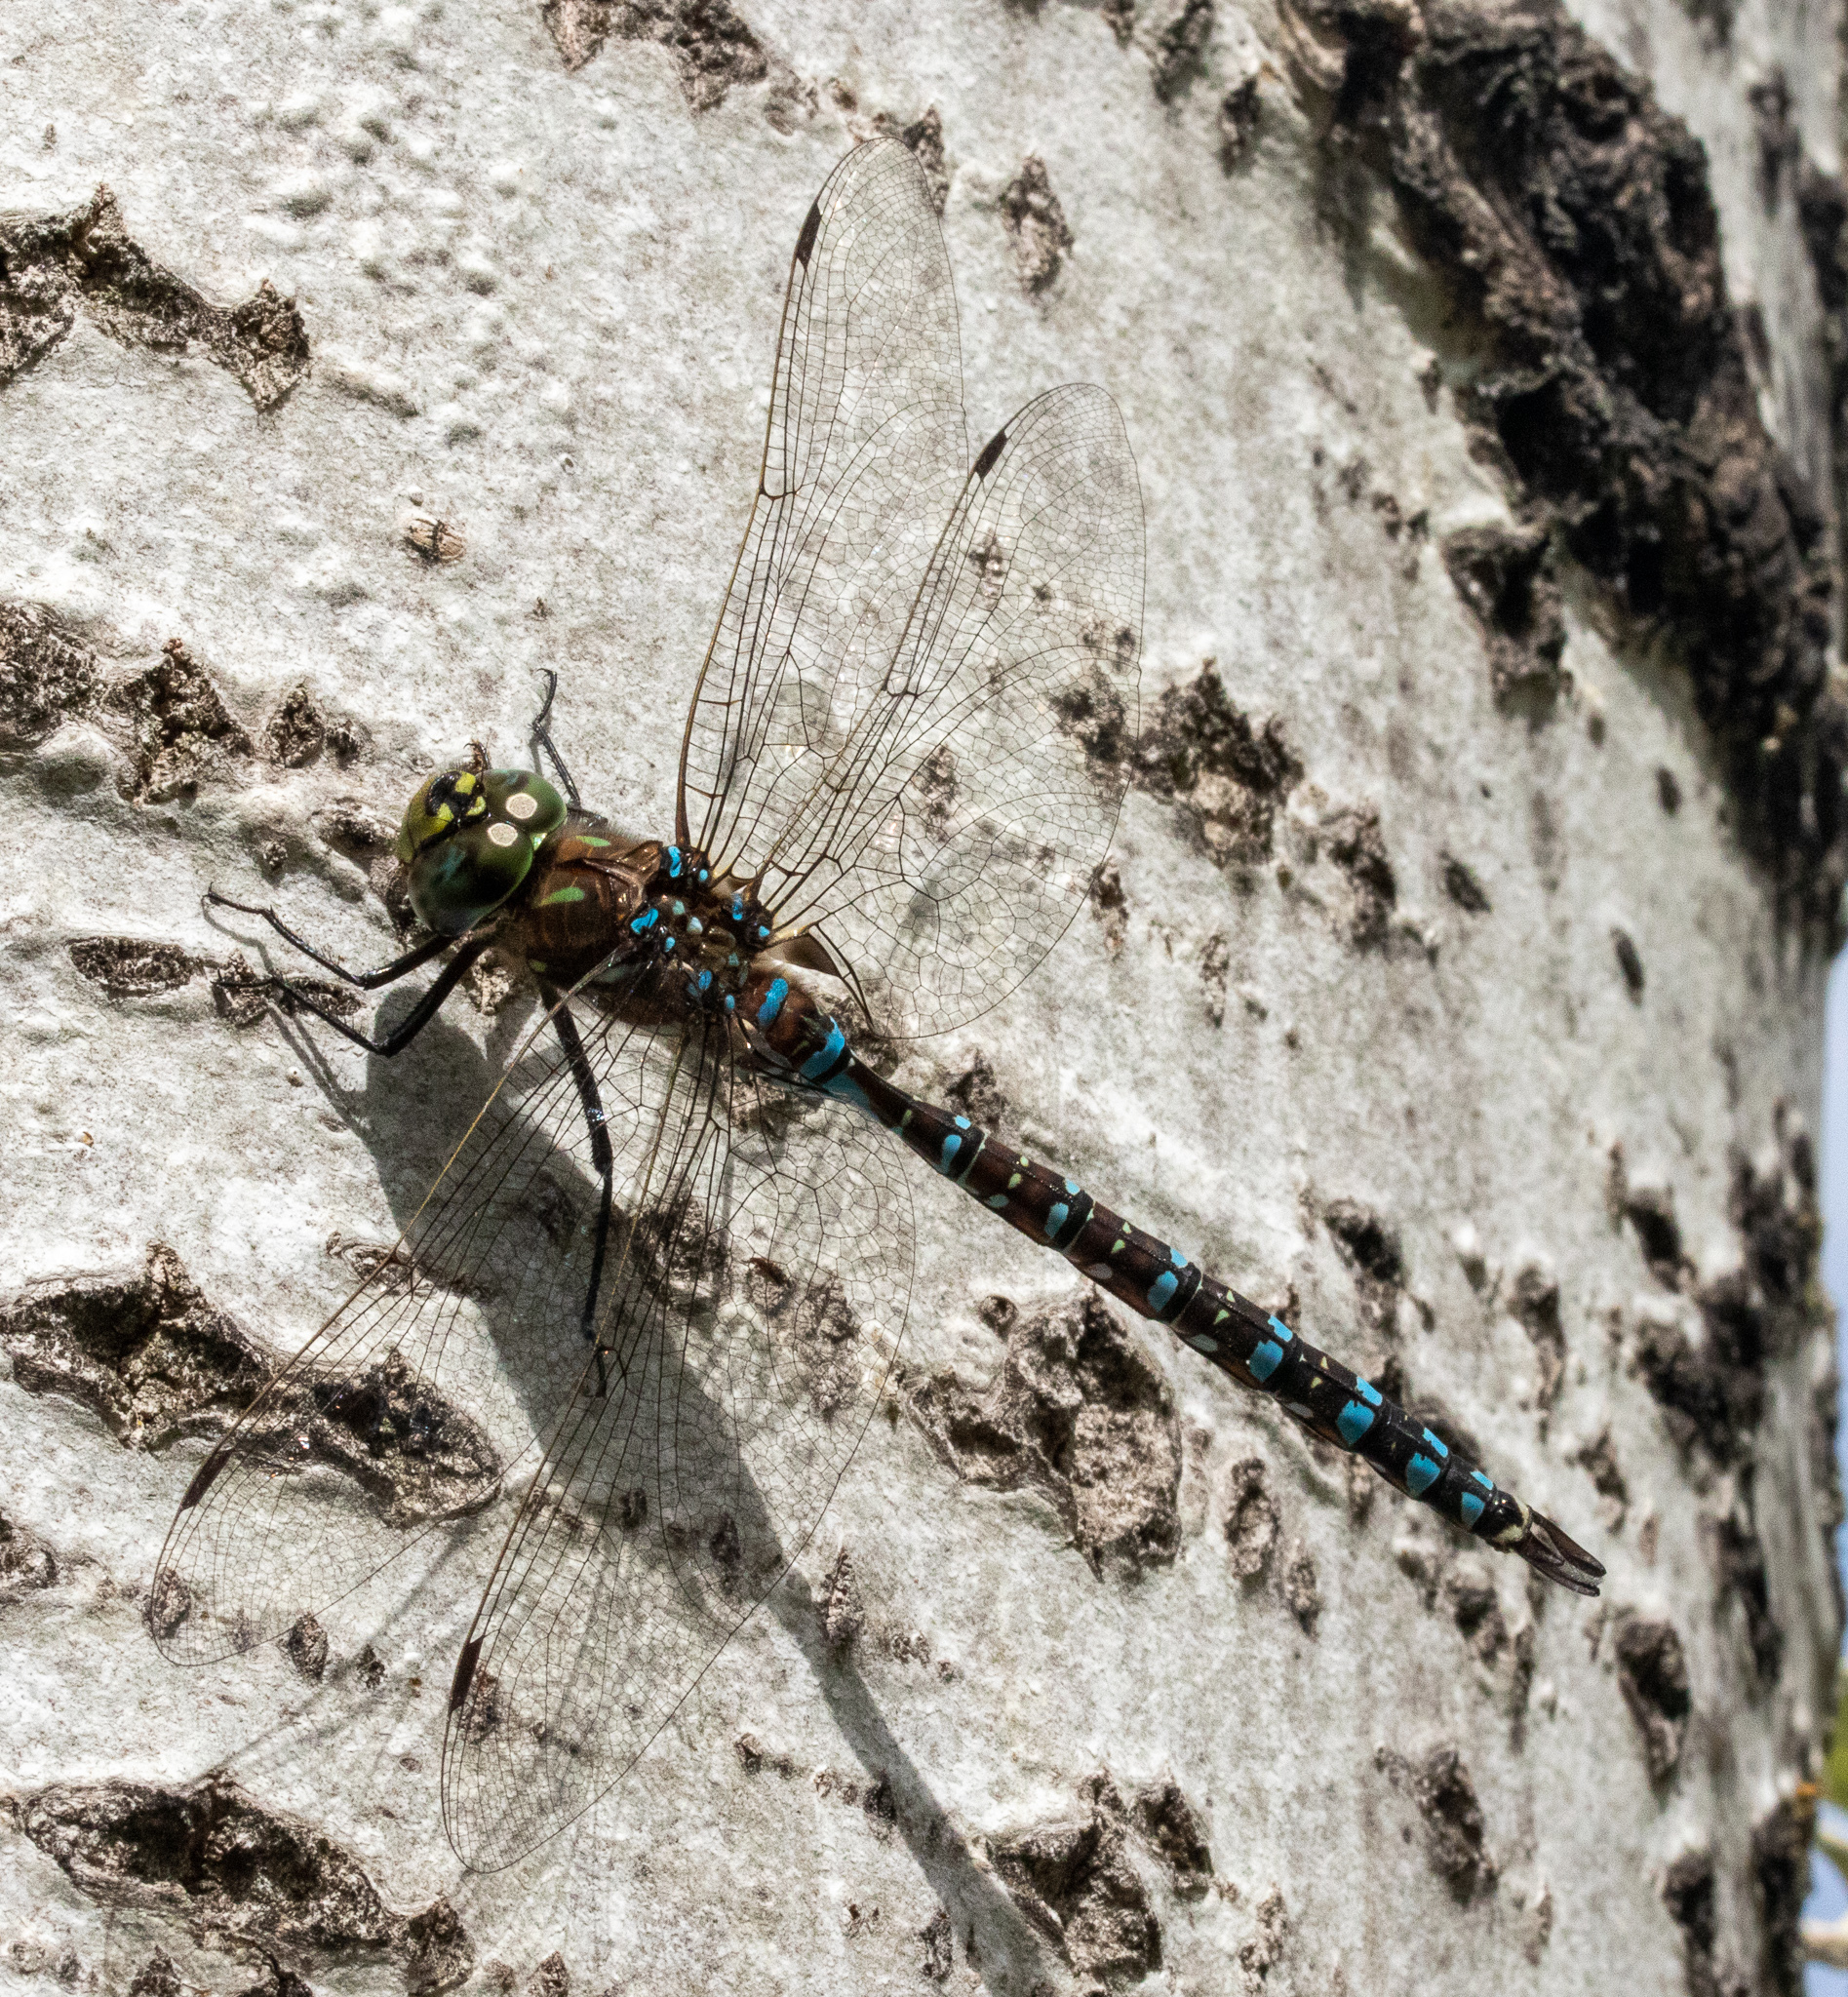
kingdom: Animalia
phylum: Arthropoda
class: Insecta
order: Odonata
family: Aeshnidae
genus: Aeshna
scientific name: Aeshna interrupta
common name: Variable darner
